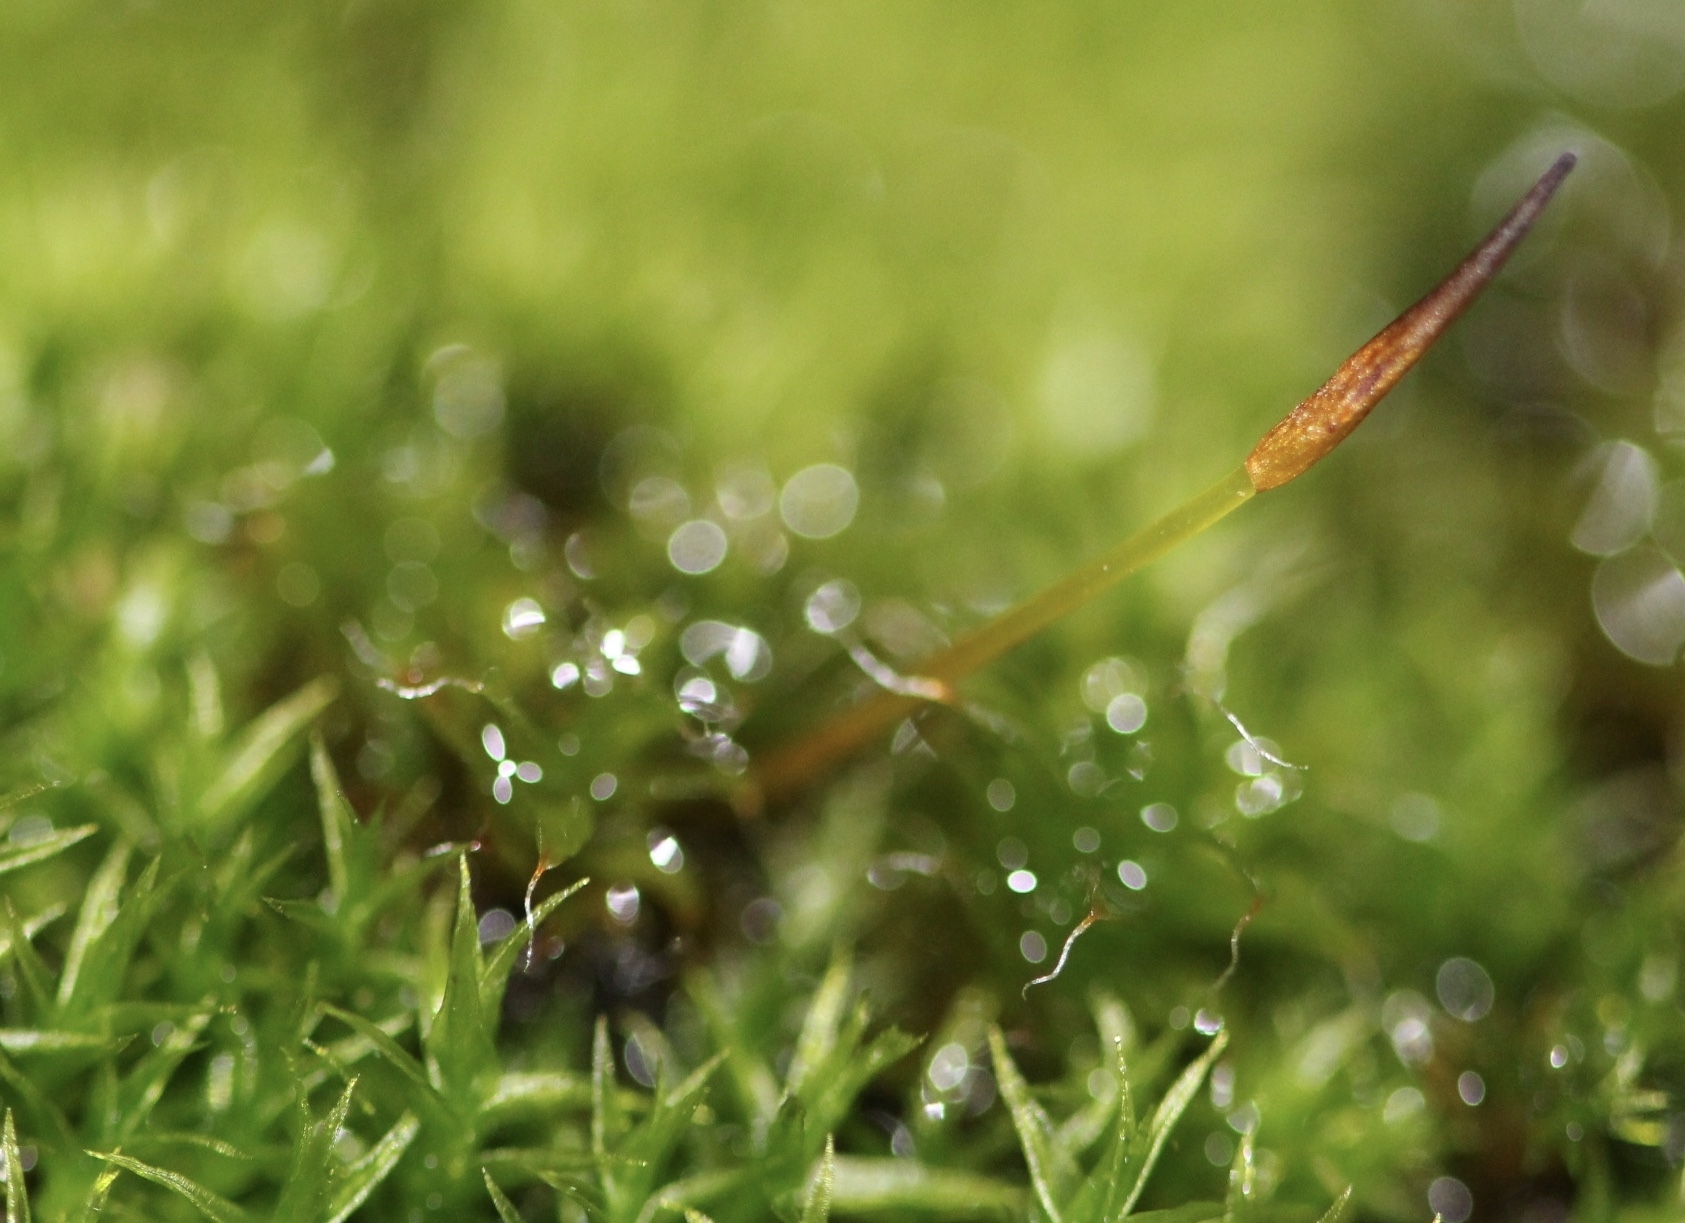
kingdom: Plantae
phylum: Bryophyta
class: Bryopsida
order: Pottiales
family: Pottiaceae
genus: Syntrichia
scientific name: Syntrichia ruralis
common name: Sidewalk screw moss
